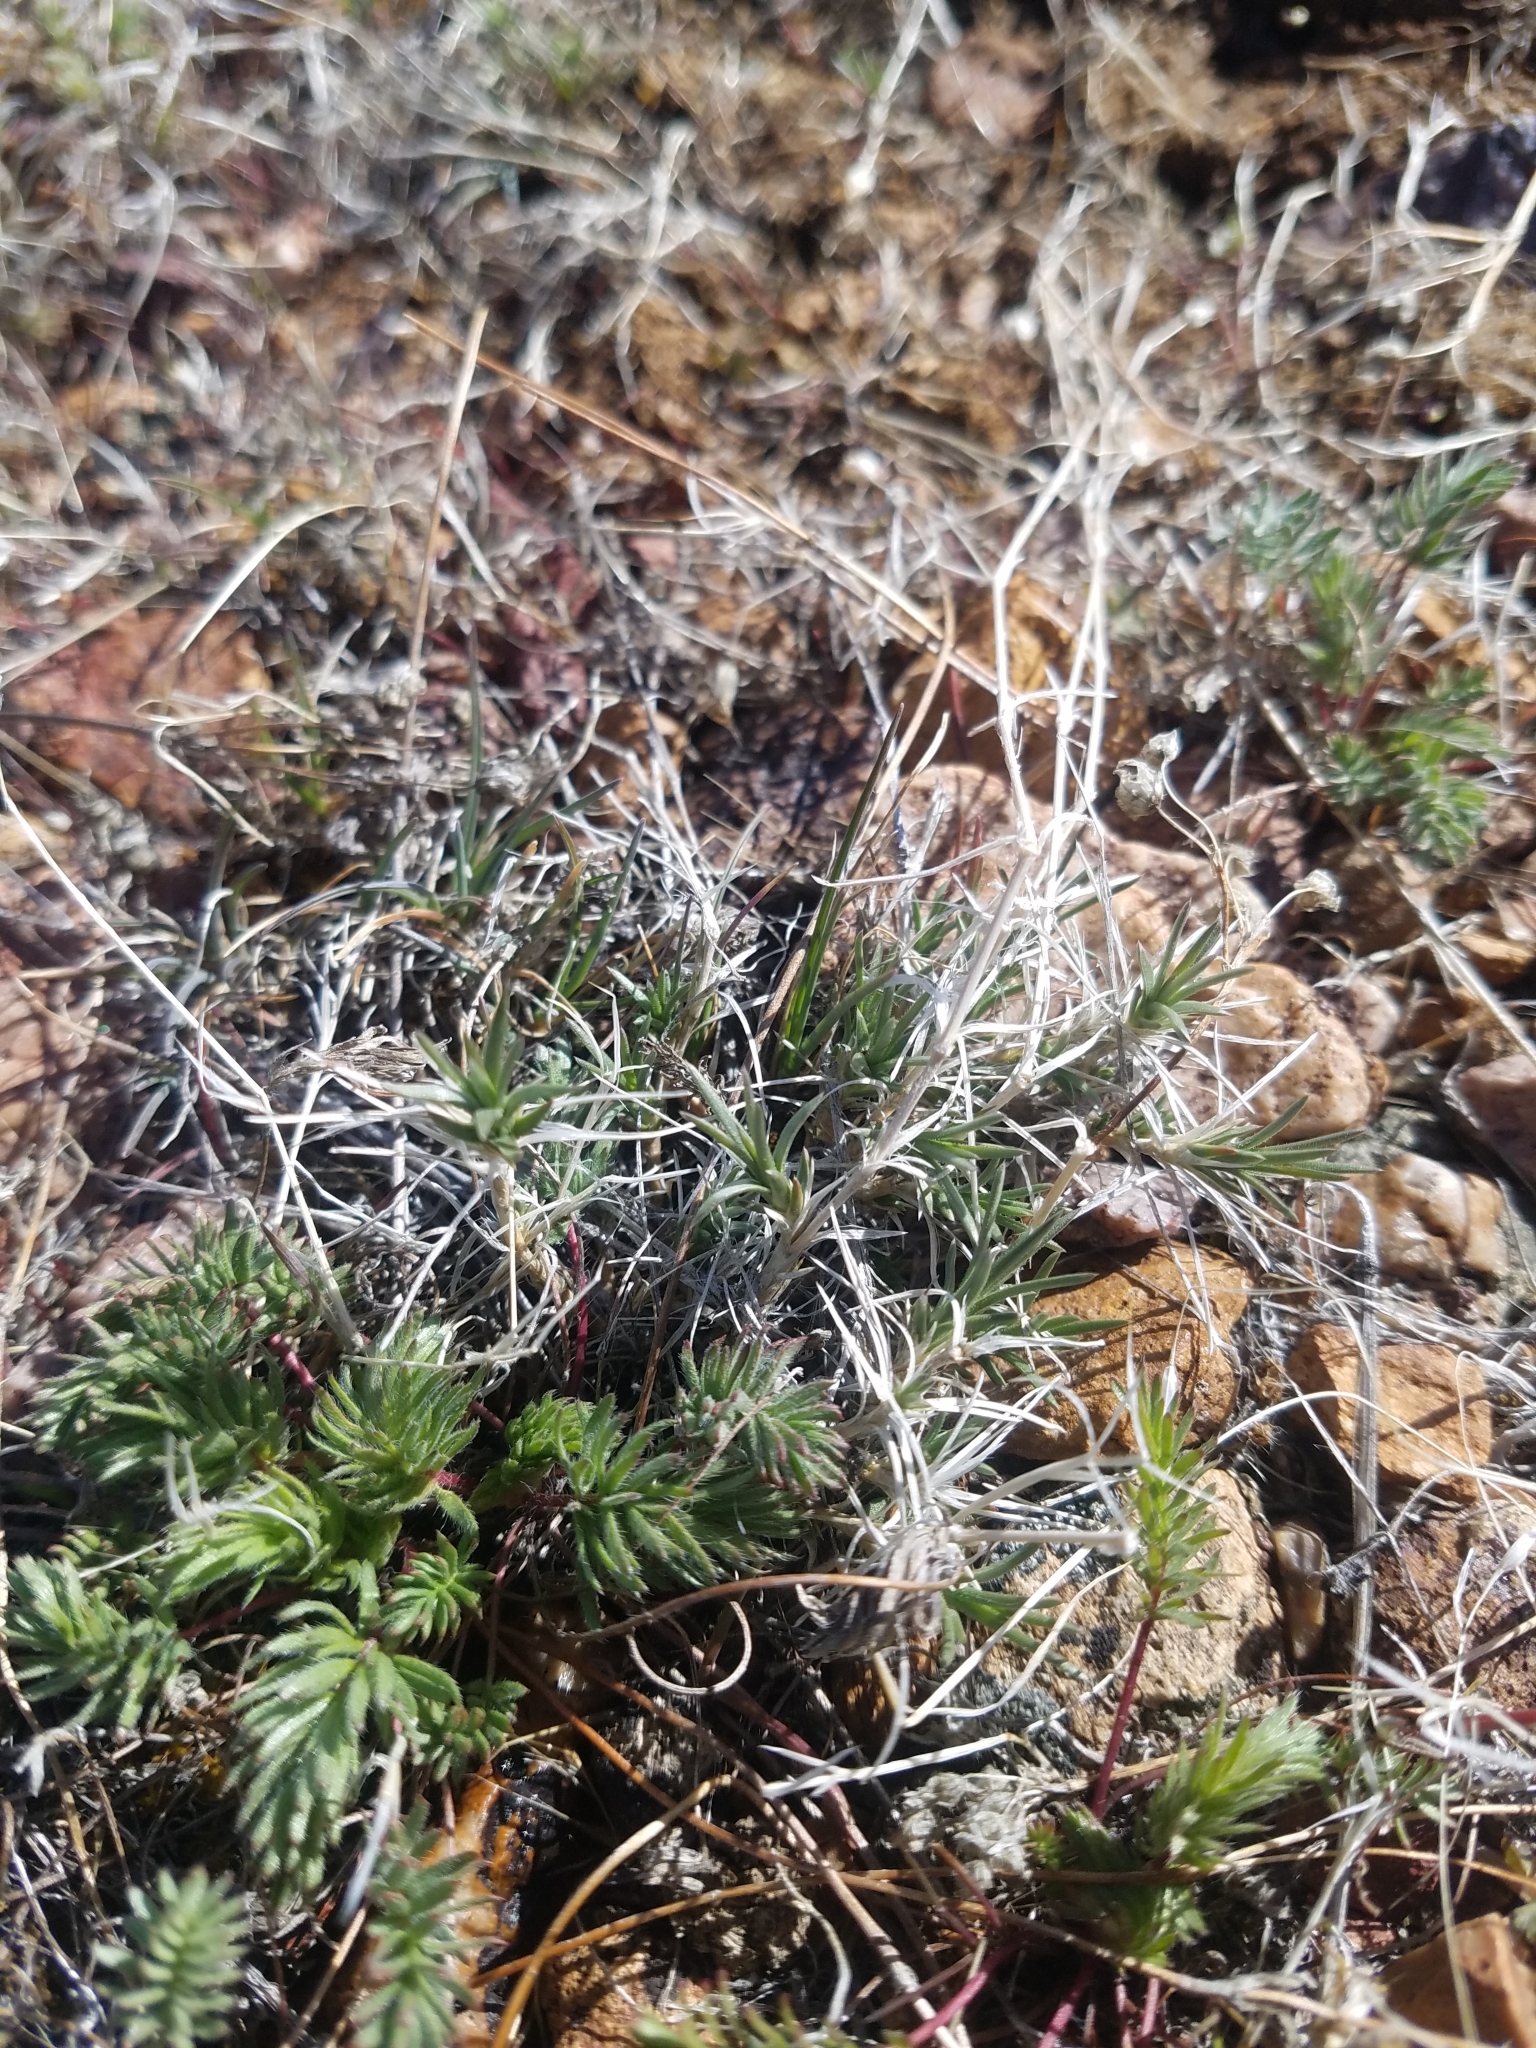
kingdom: Plantae
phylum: Tracheophyta
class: Magnoliopsida
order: Rosales
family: Rosaceae
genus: Potentilla
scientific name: Potentilla webberi
